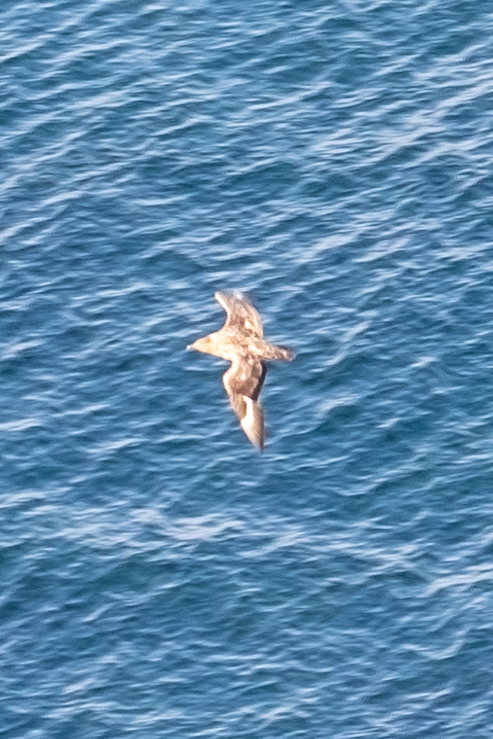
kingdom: Animalia
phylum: Chordata
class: Aves
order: Charadriiformes
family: Stercorariidae
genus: Stercorarius
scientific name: Stercorarius skua
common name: Great skua
